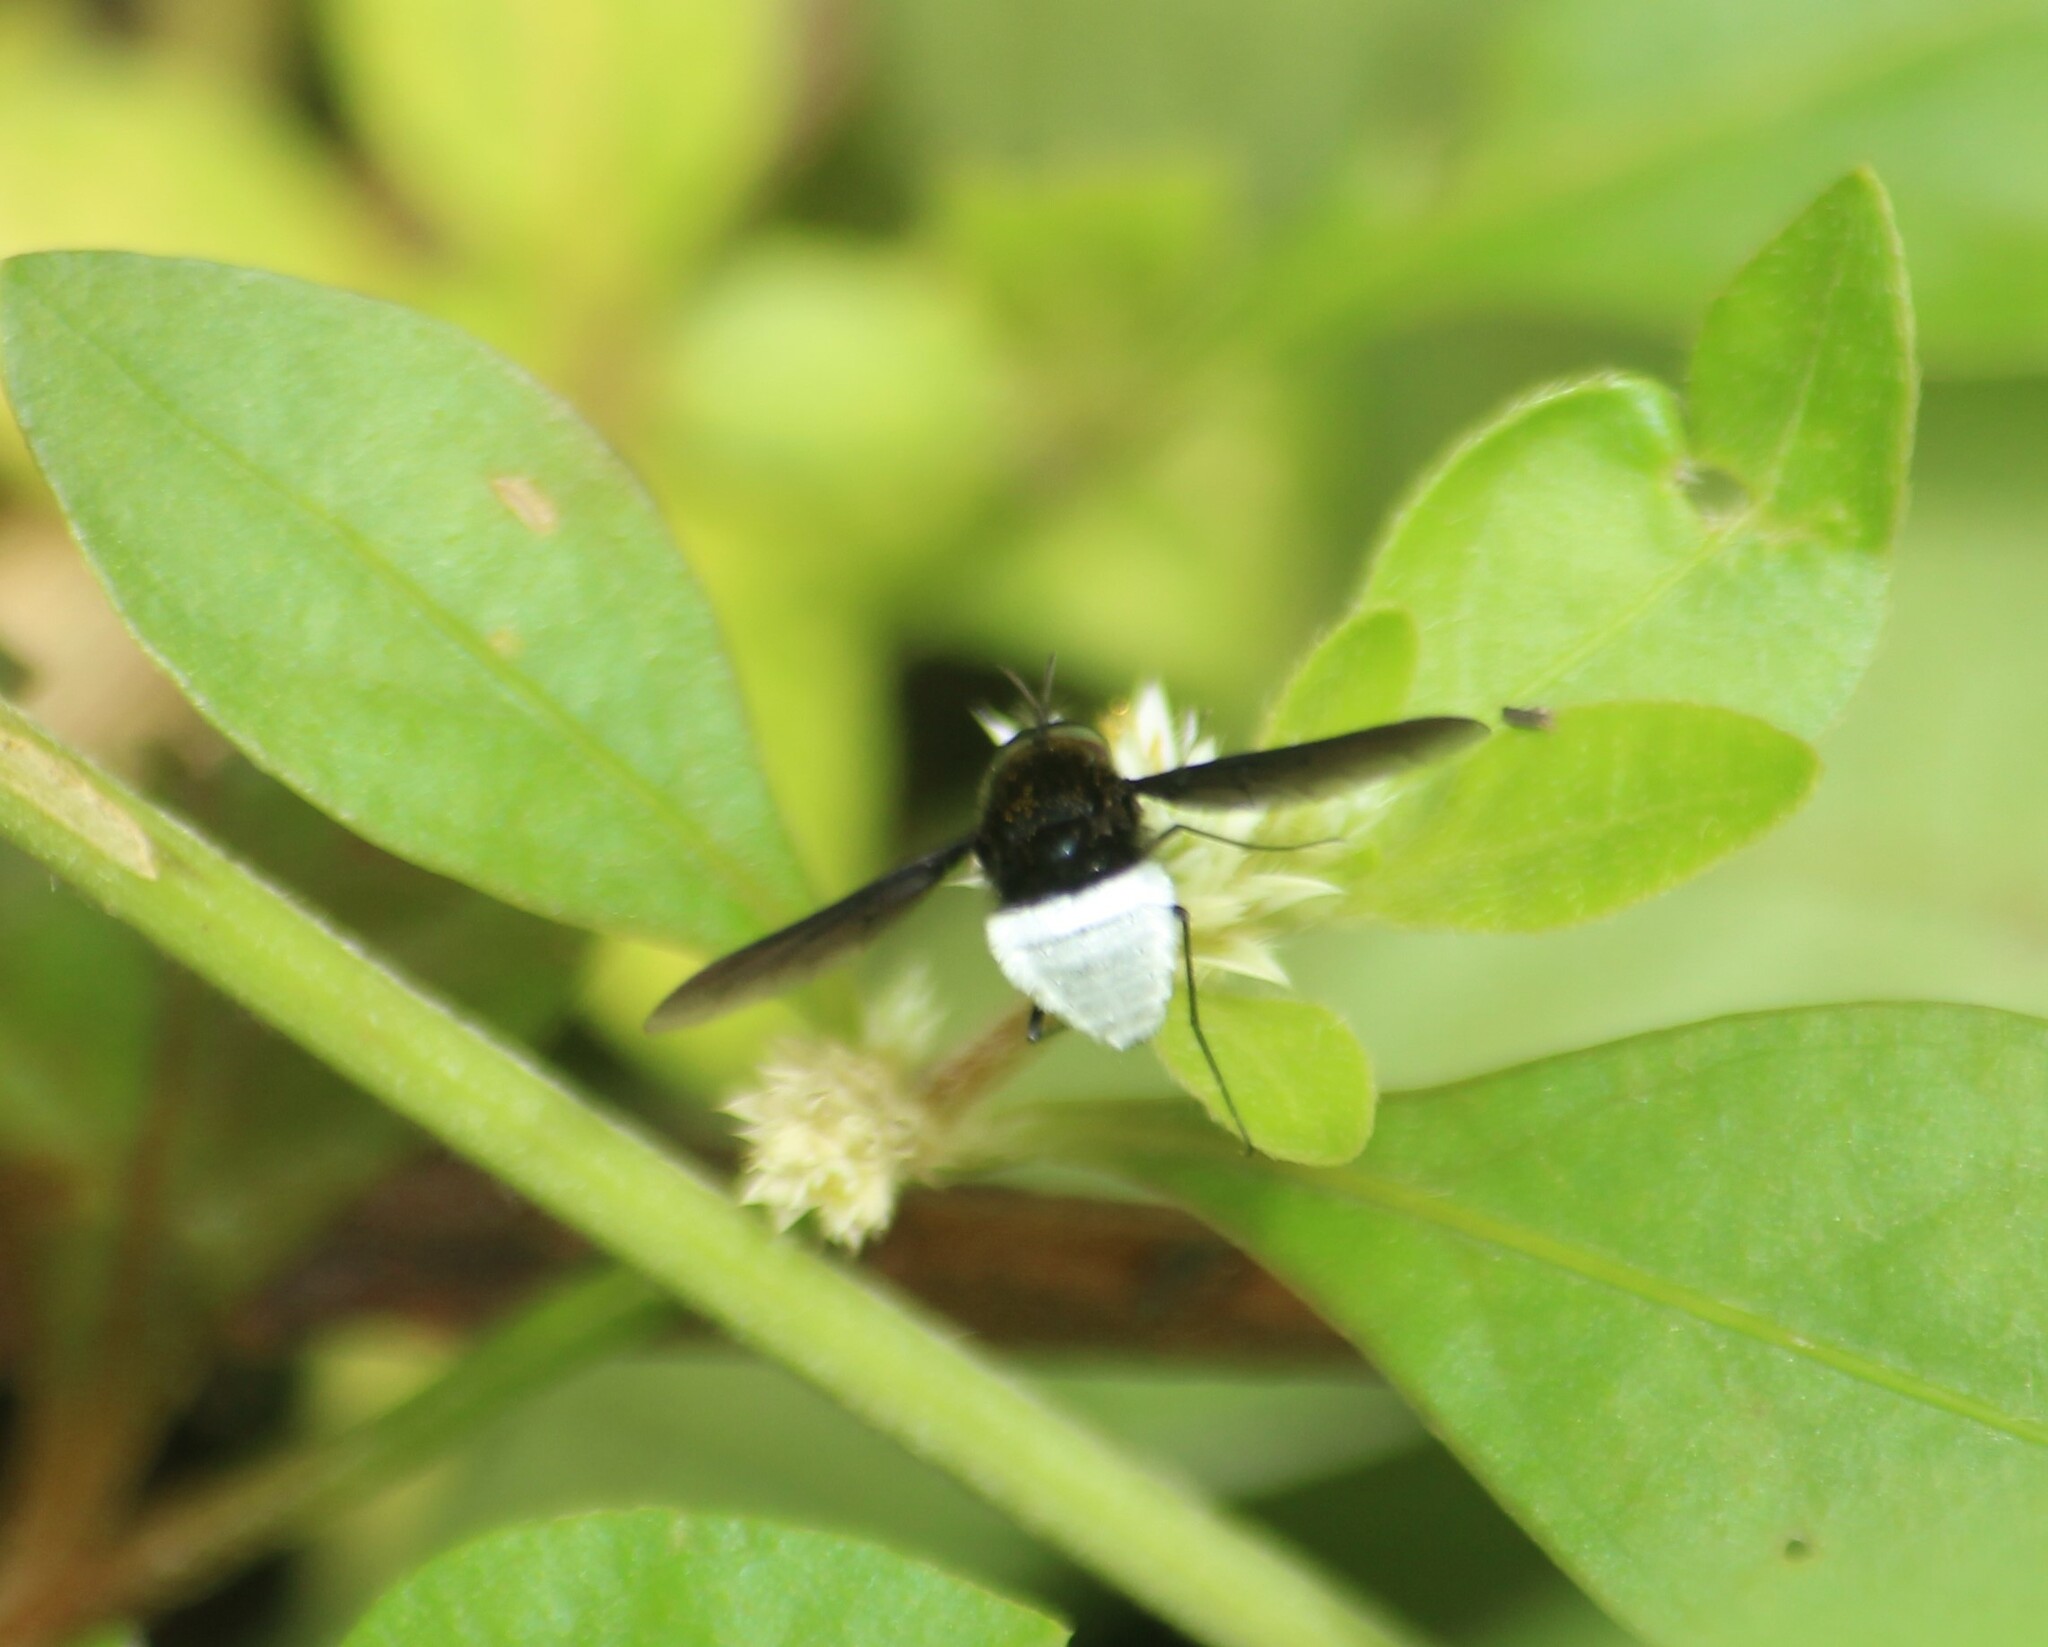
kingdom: Animalia
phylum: Arthropoda
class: Insecta
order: Diptera
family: Bombyliidae
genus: Euchariomyia
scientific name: Euchariomyia dives
